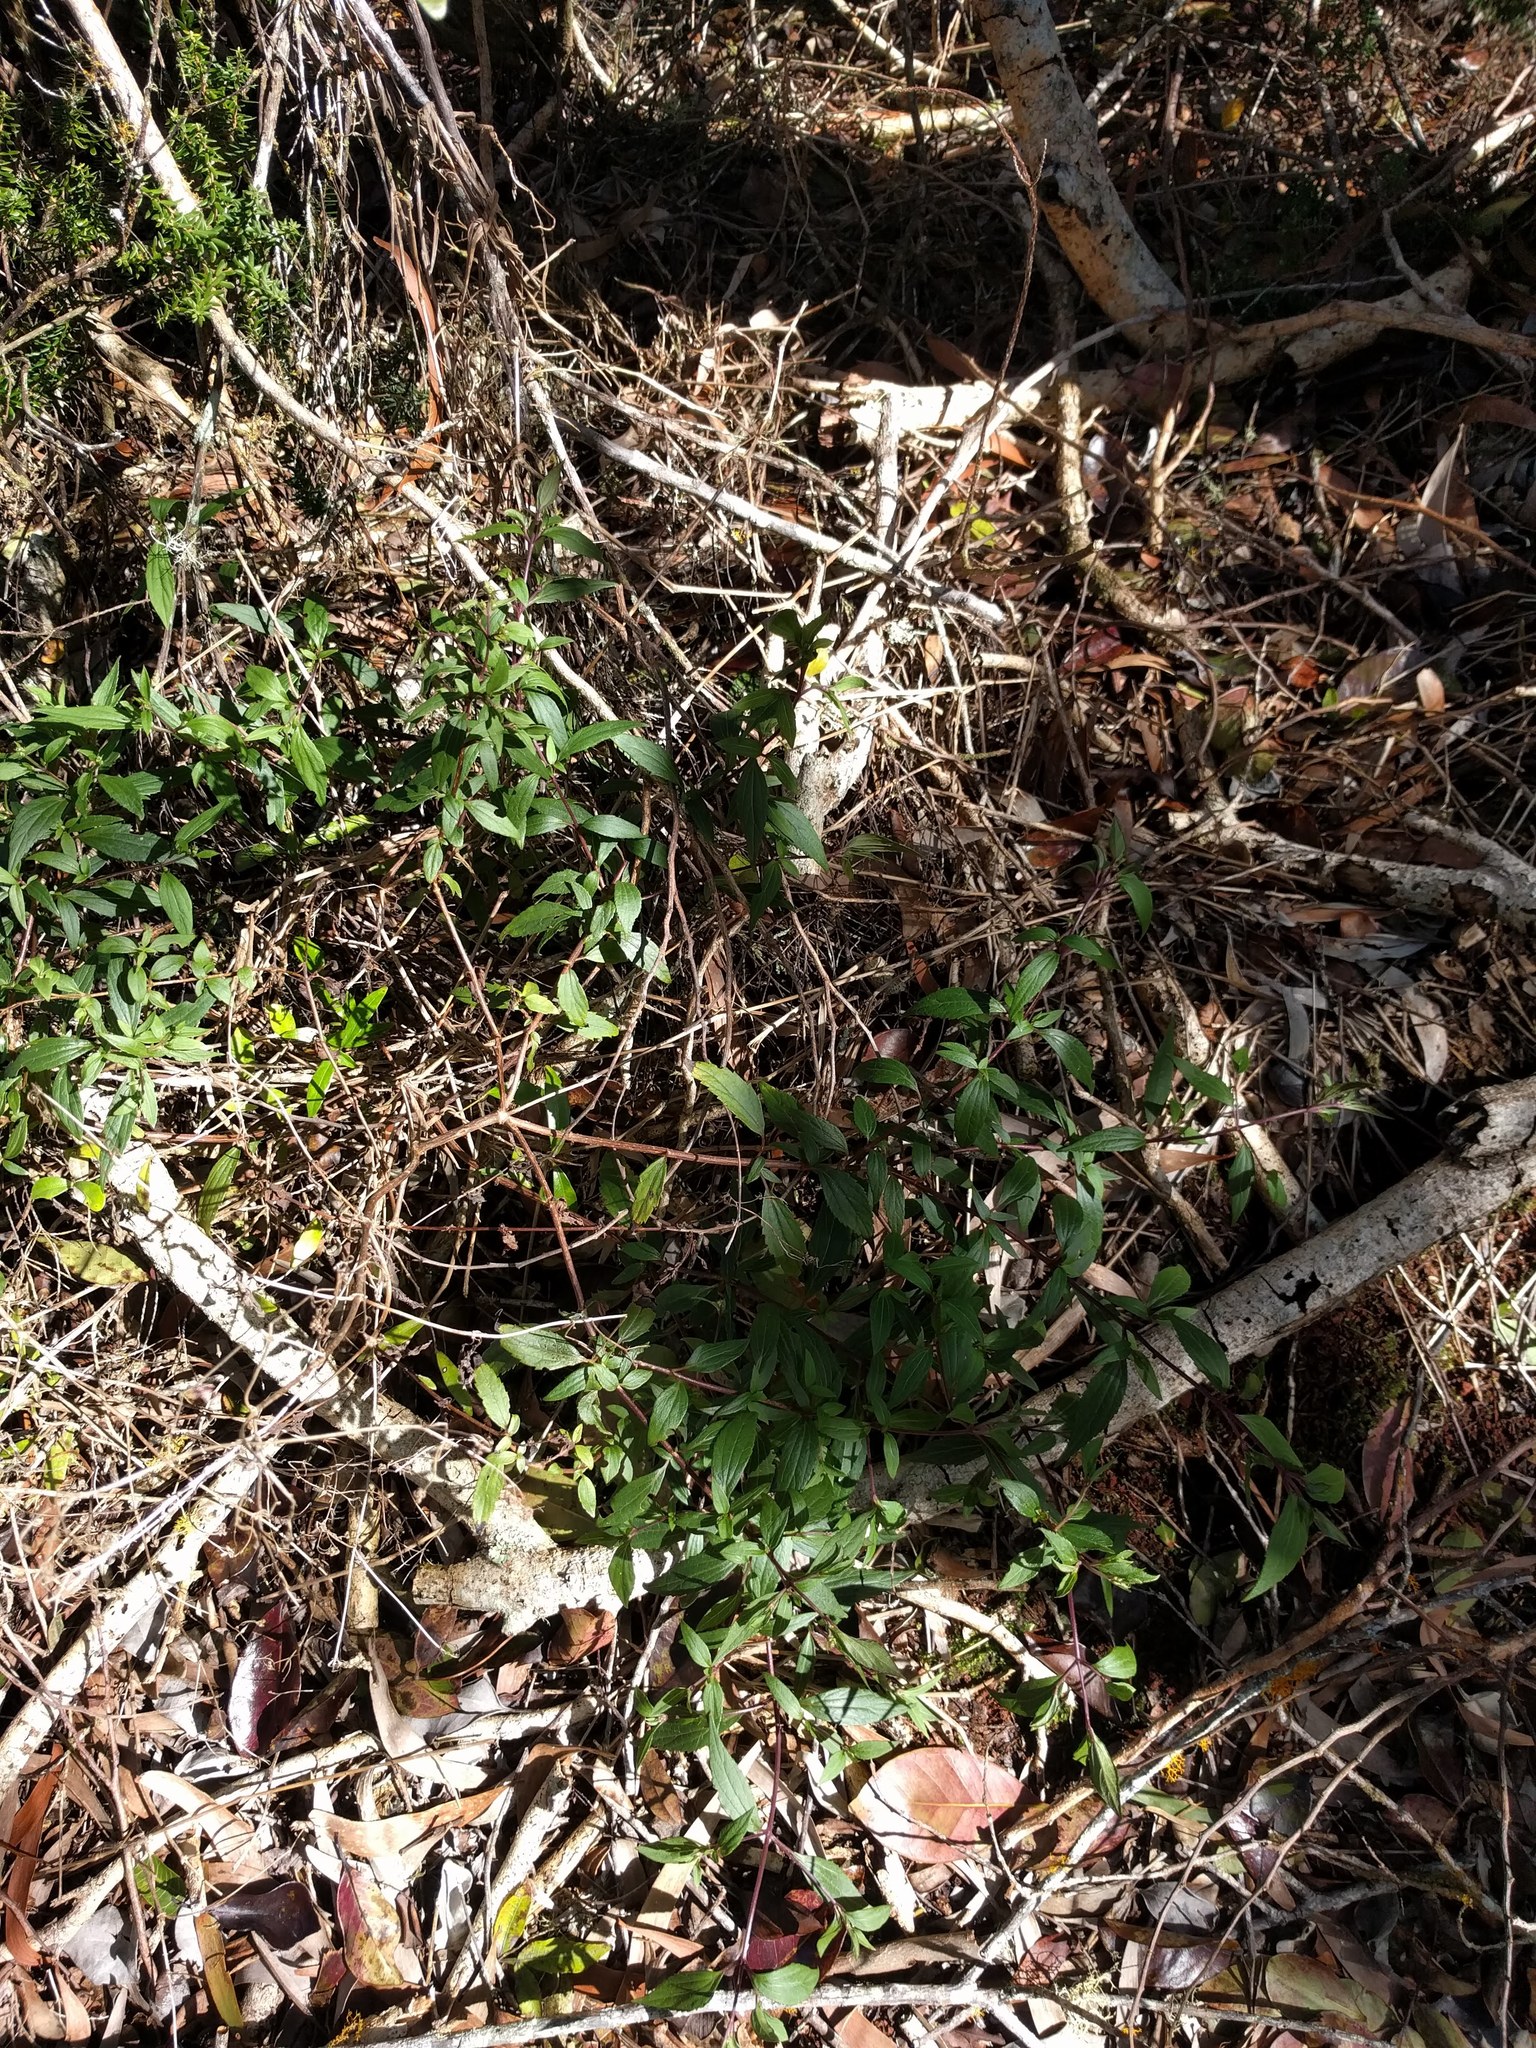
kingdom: Plantae
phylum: Tracheophyta
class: Magnoliopsida
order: Gentianales
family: Apocynaceae
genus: Alyxia
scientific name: Alyxia stellata
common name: Maile
